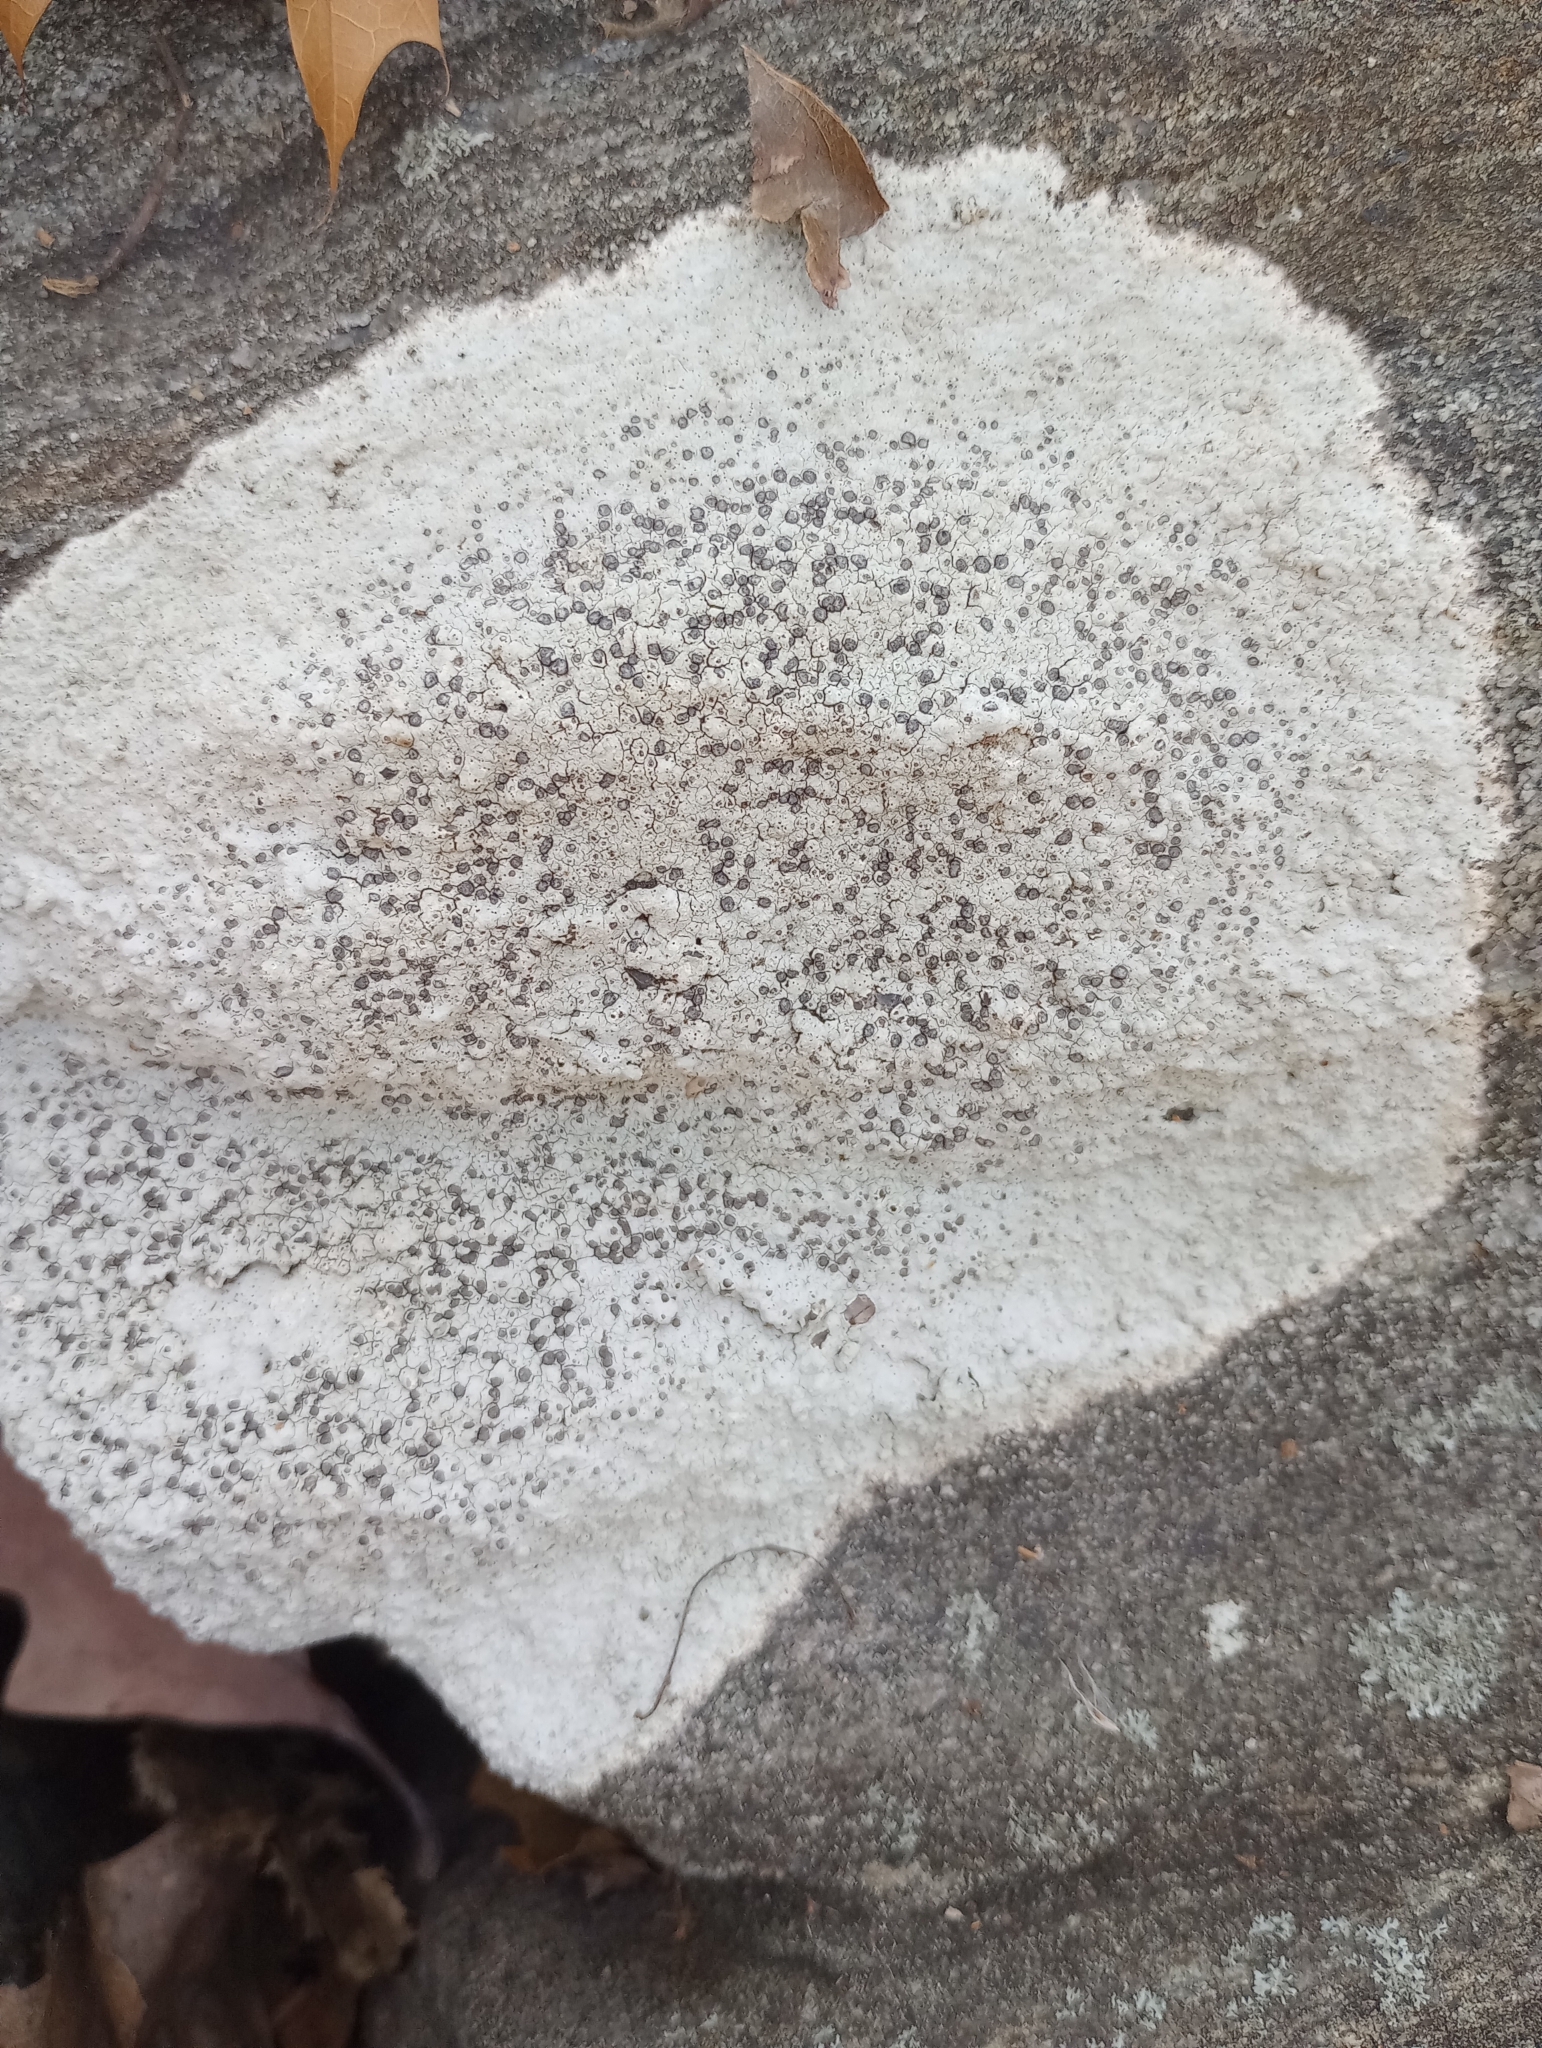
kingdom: Fungi
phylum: Ascomycota
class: Lecanoromycetes
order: Lecideales
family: Lecideaceae
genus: Porpidia
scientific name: Porpidia albocaerulescens
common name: Smokey-eyed boulder lichen
